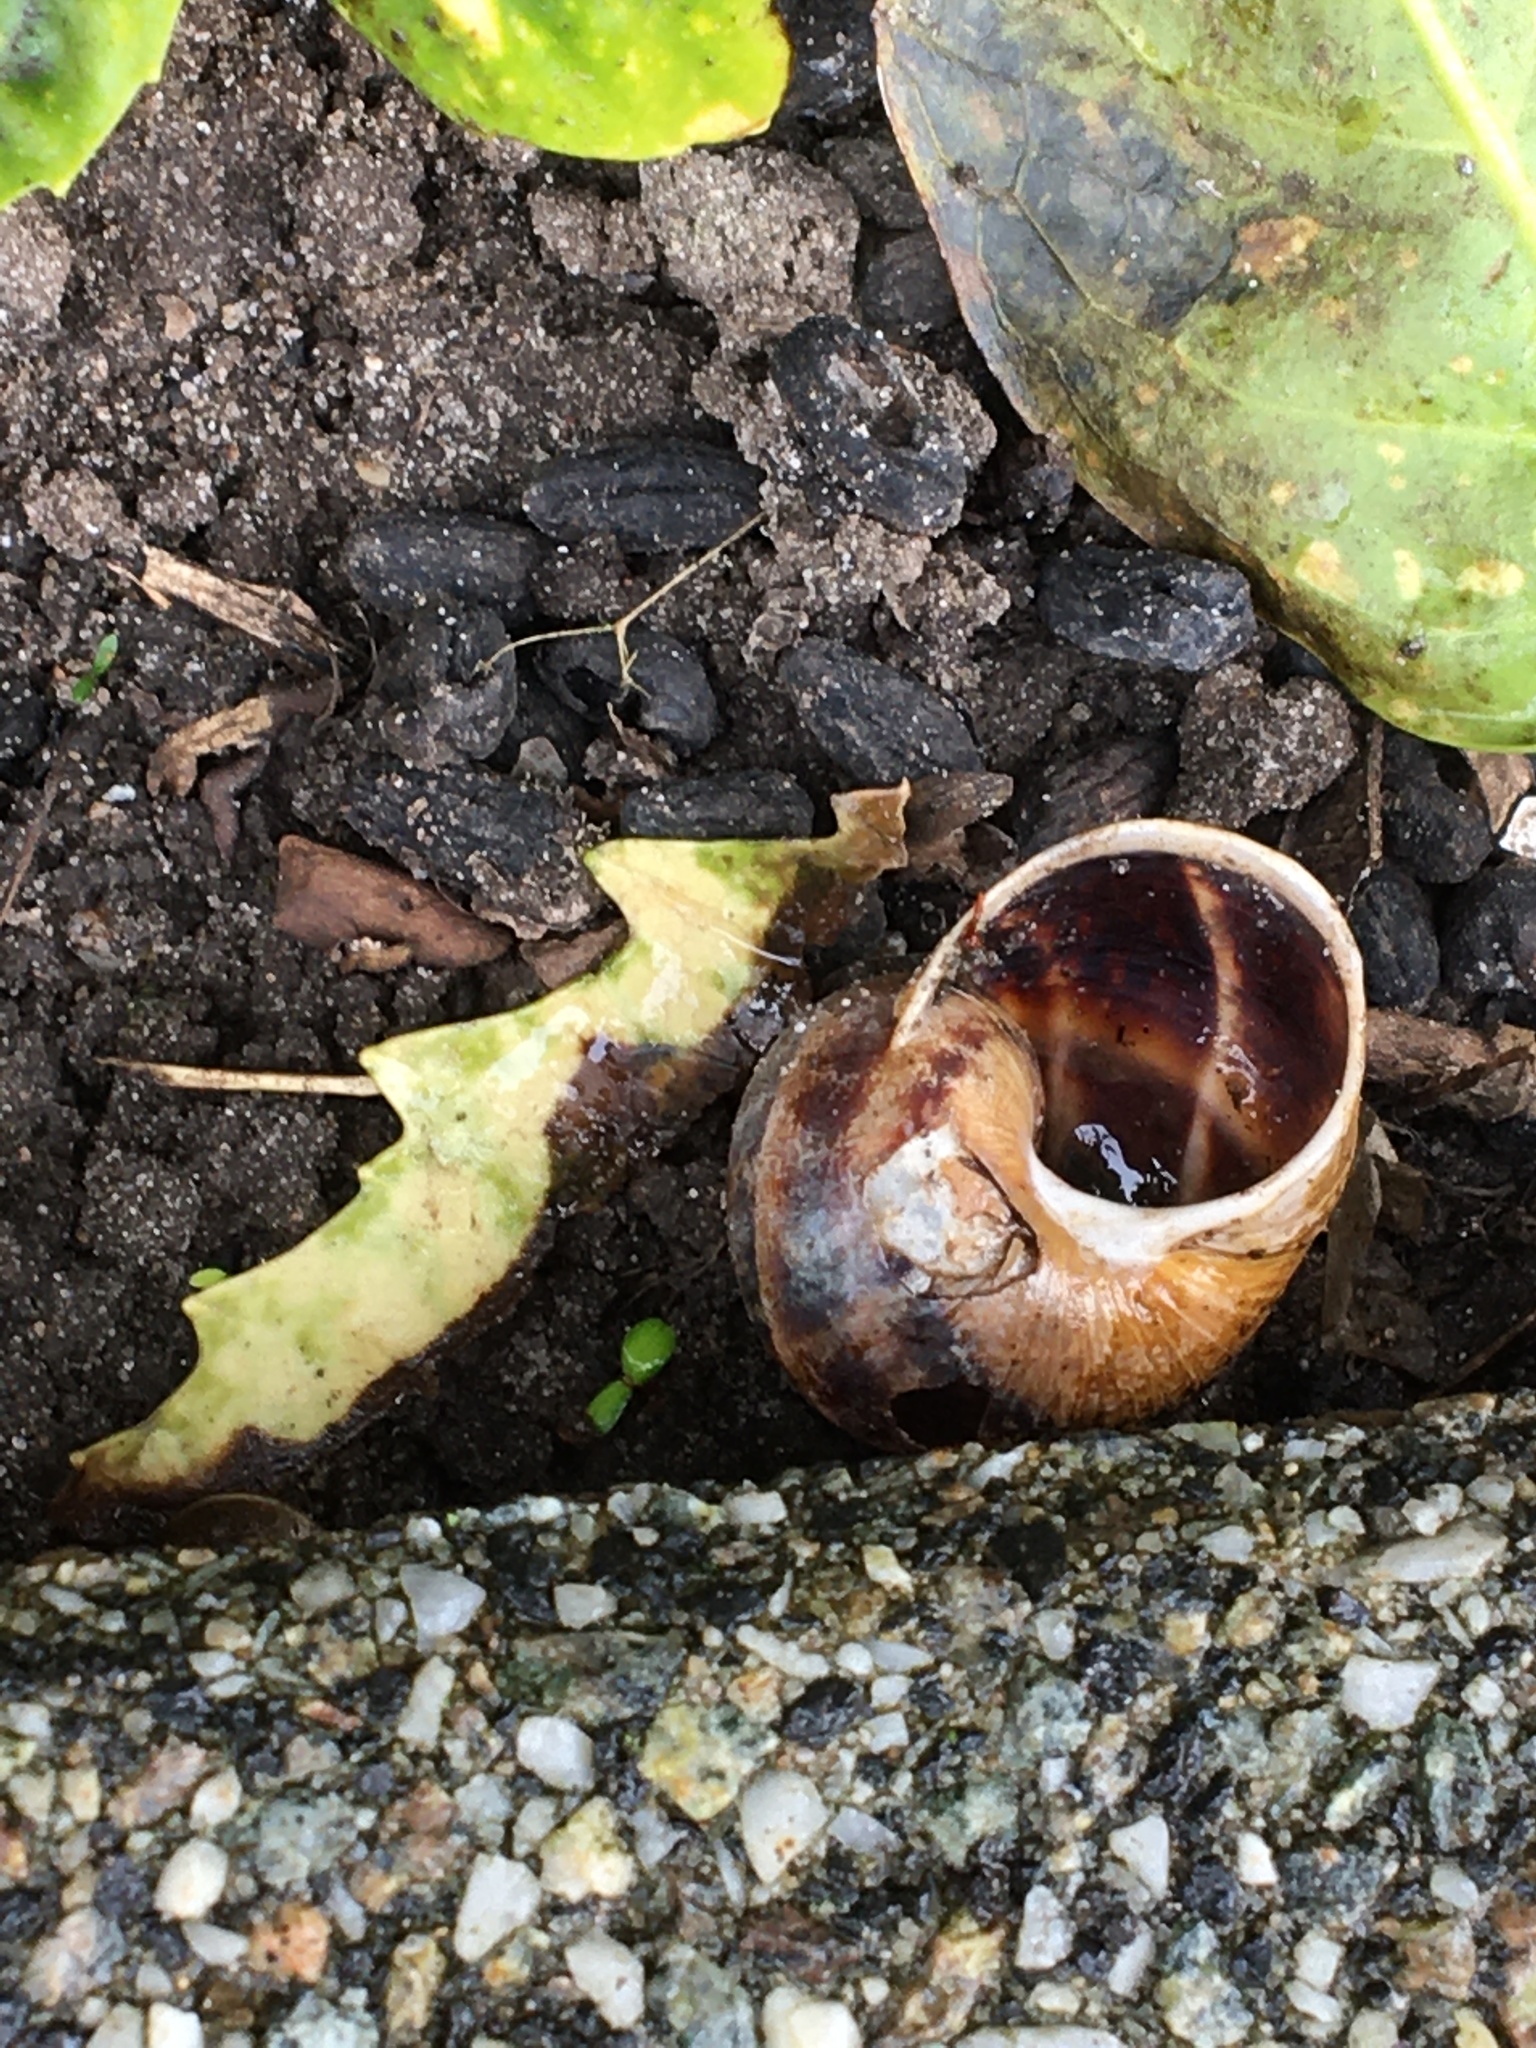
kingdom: Animalia
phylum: Mollusca
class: Gastropoda
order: Stylommatophora
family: Helicidae
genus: Cornu
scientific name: Cornu aspersum
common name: Brown garden snail
